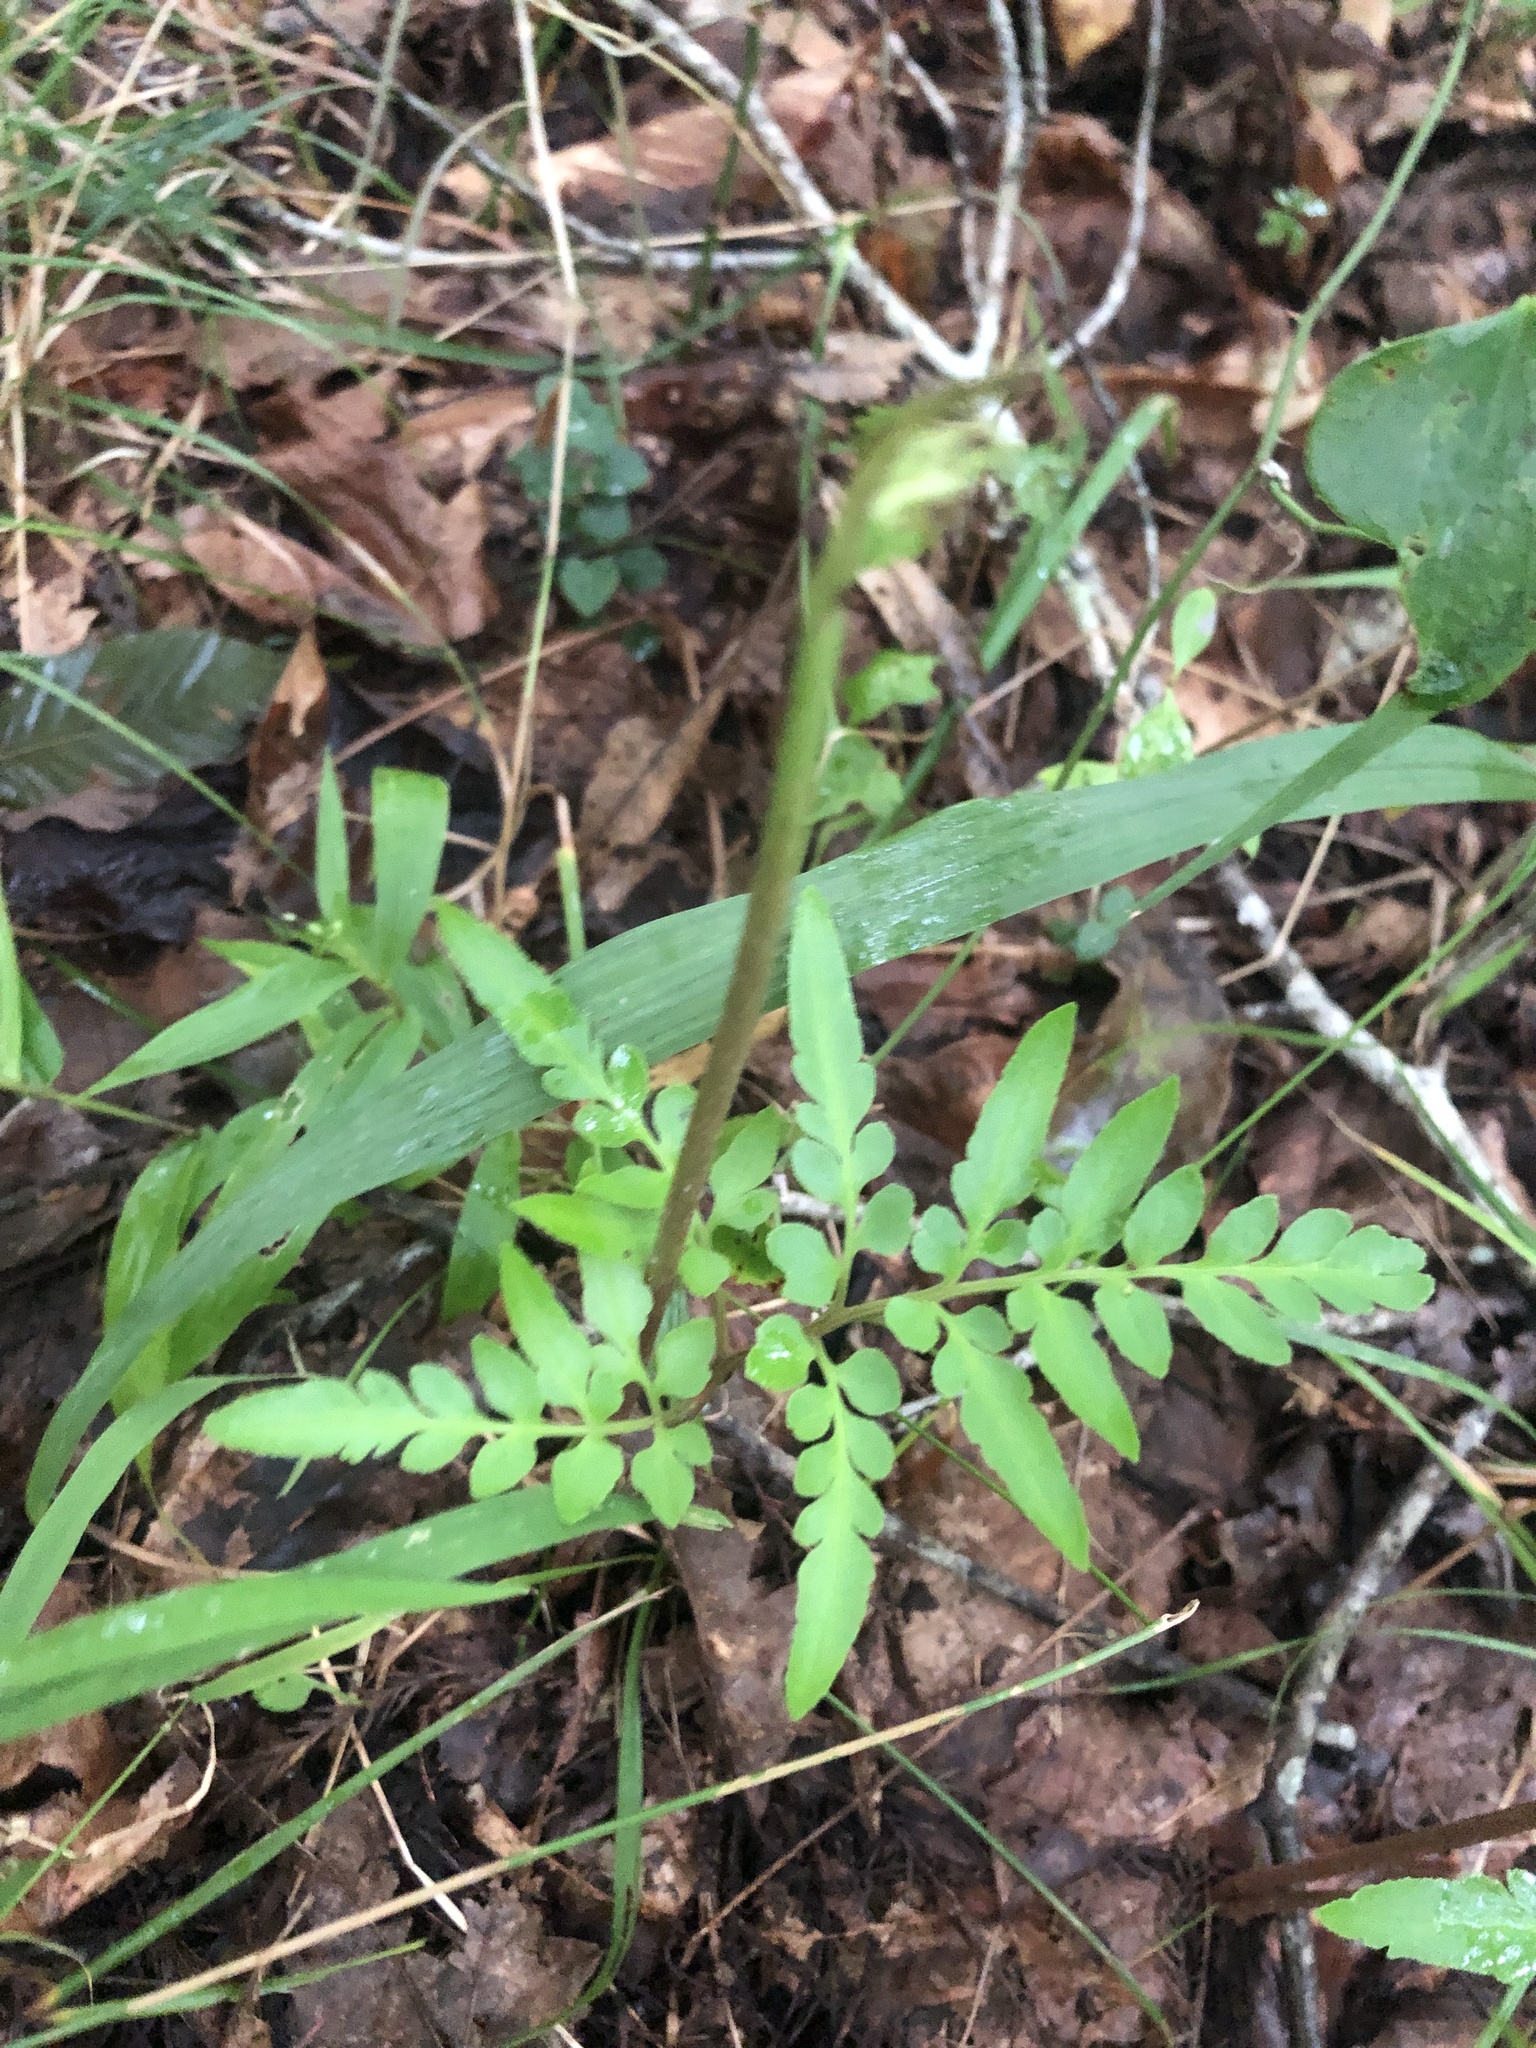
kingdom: Plantae
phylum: Tracheophyta
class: Polypodiopsida
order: Ophioglossales
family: Ophioglossaceae
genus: Sceptridium
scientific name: Sceptridium dissectum
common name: Cut-leaved grapefern
